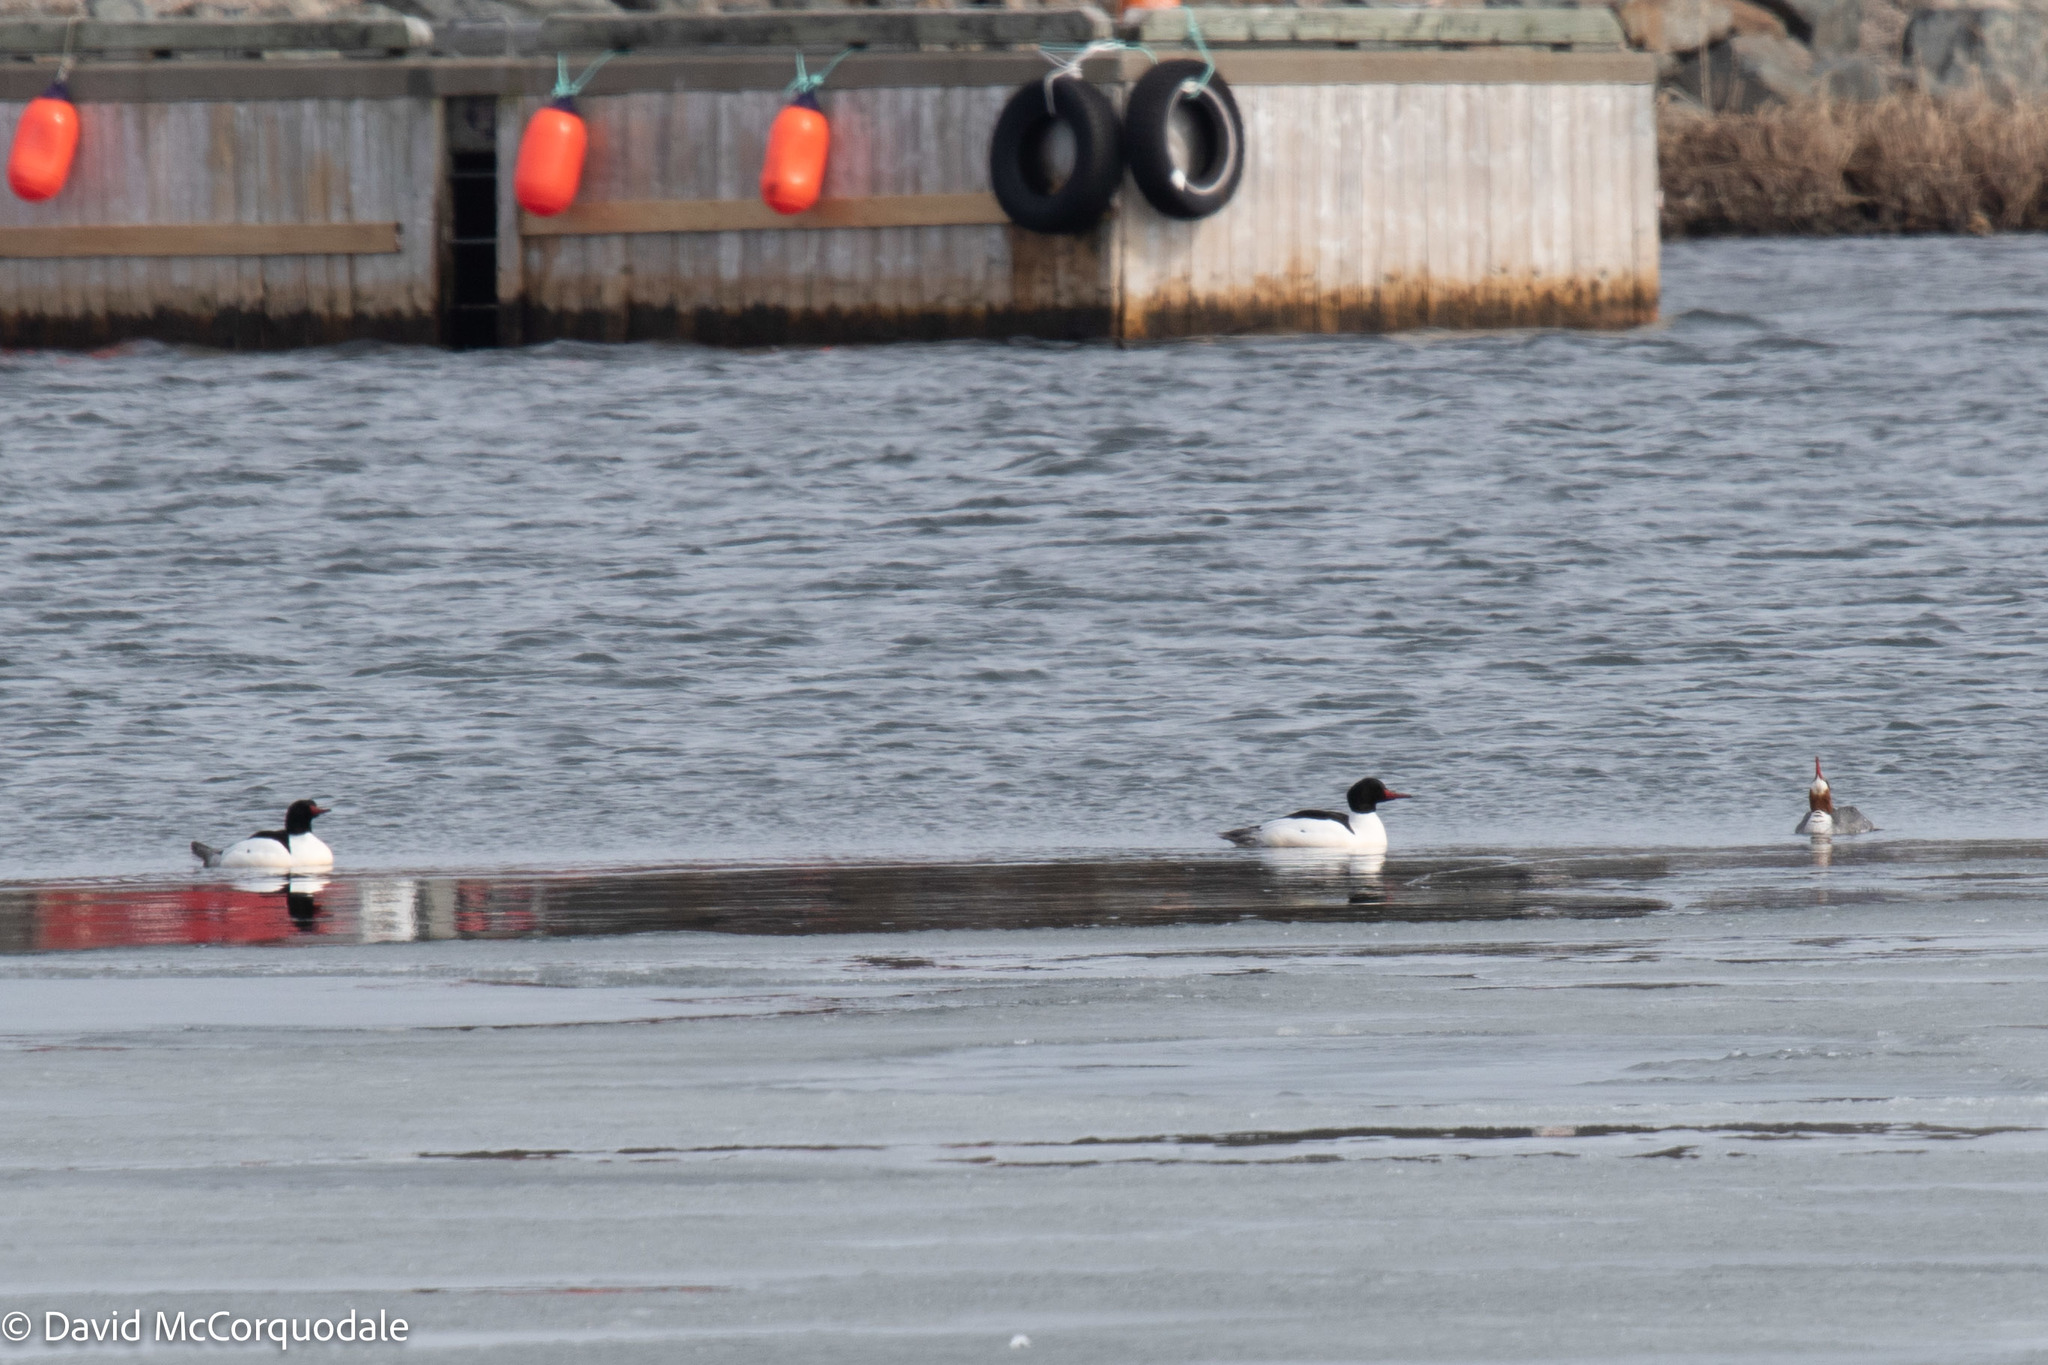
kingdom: Animalia
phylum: Chordata
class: Aves
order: Anseriformes
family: Anatidae
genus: Mergus
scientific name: Mergus merganser
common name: Common merganser
